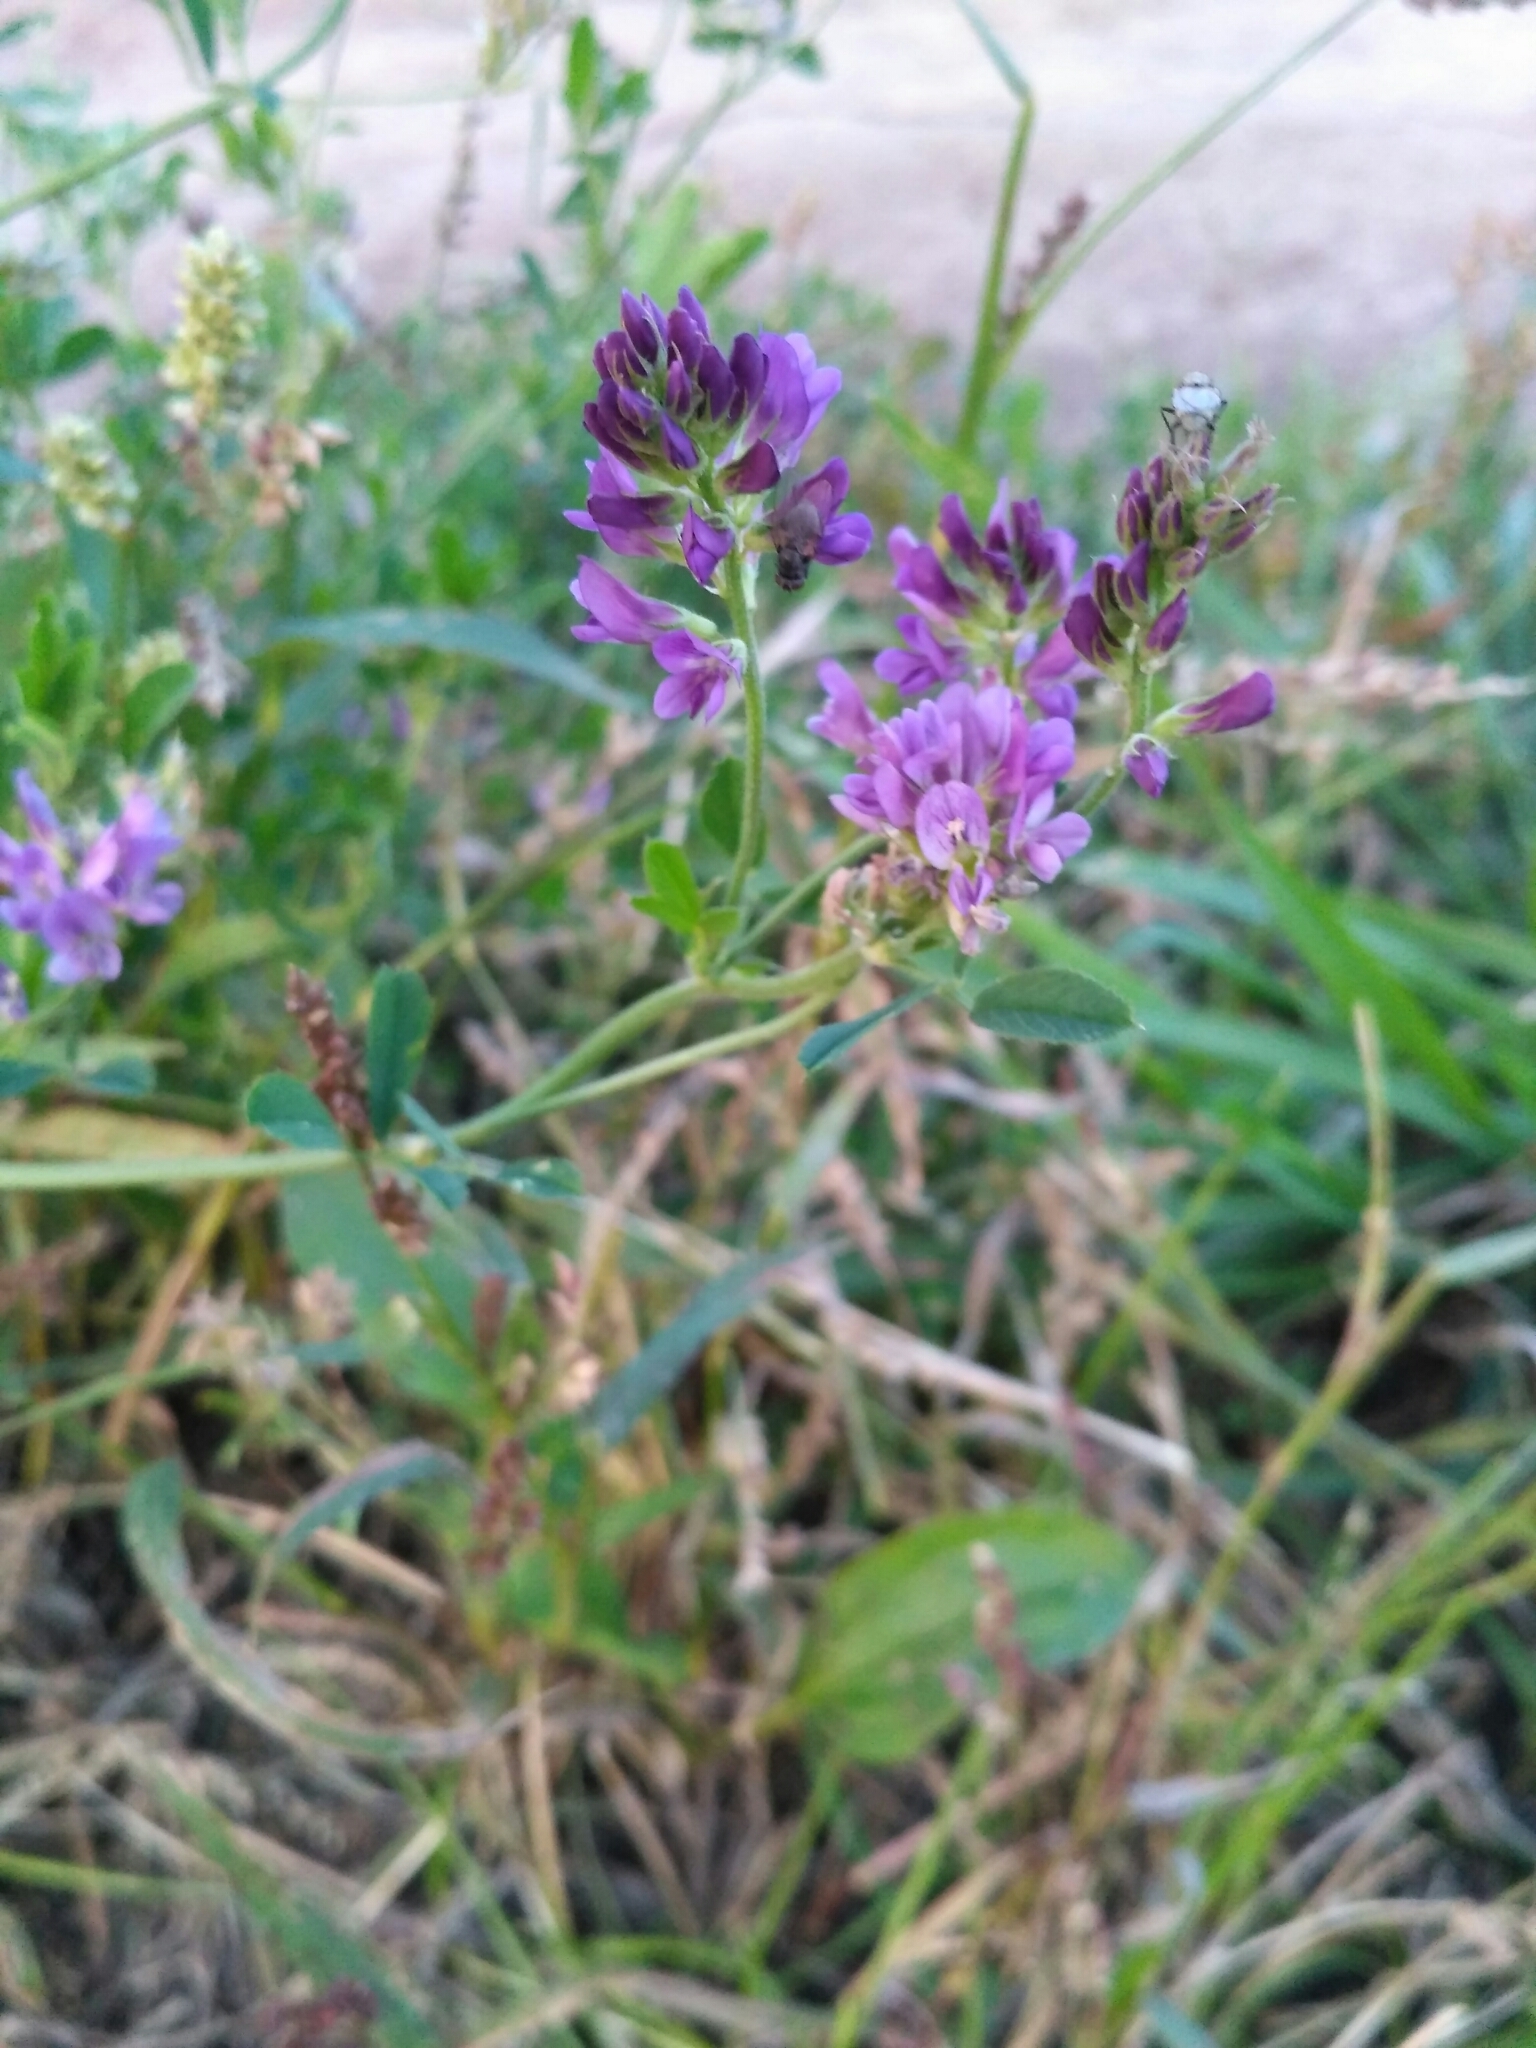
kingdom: Plantae
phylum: Tracheophyta
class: Magnoliopsida
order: Fabales
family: Fabaceae
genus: Medicago
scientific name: Medicago sativa
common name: Alfalfa
